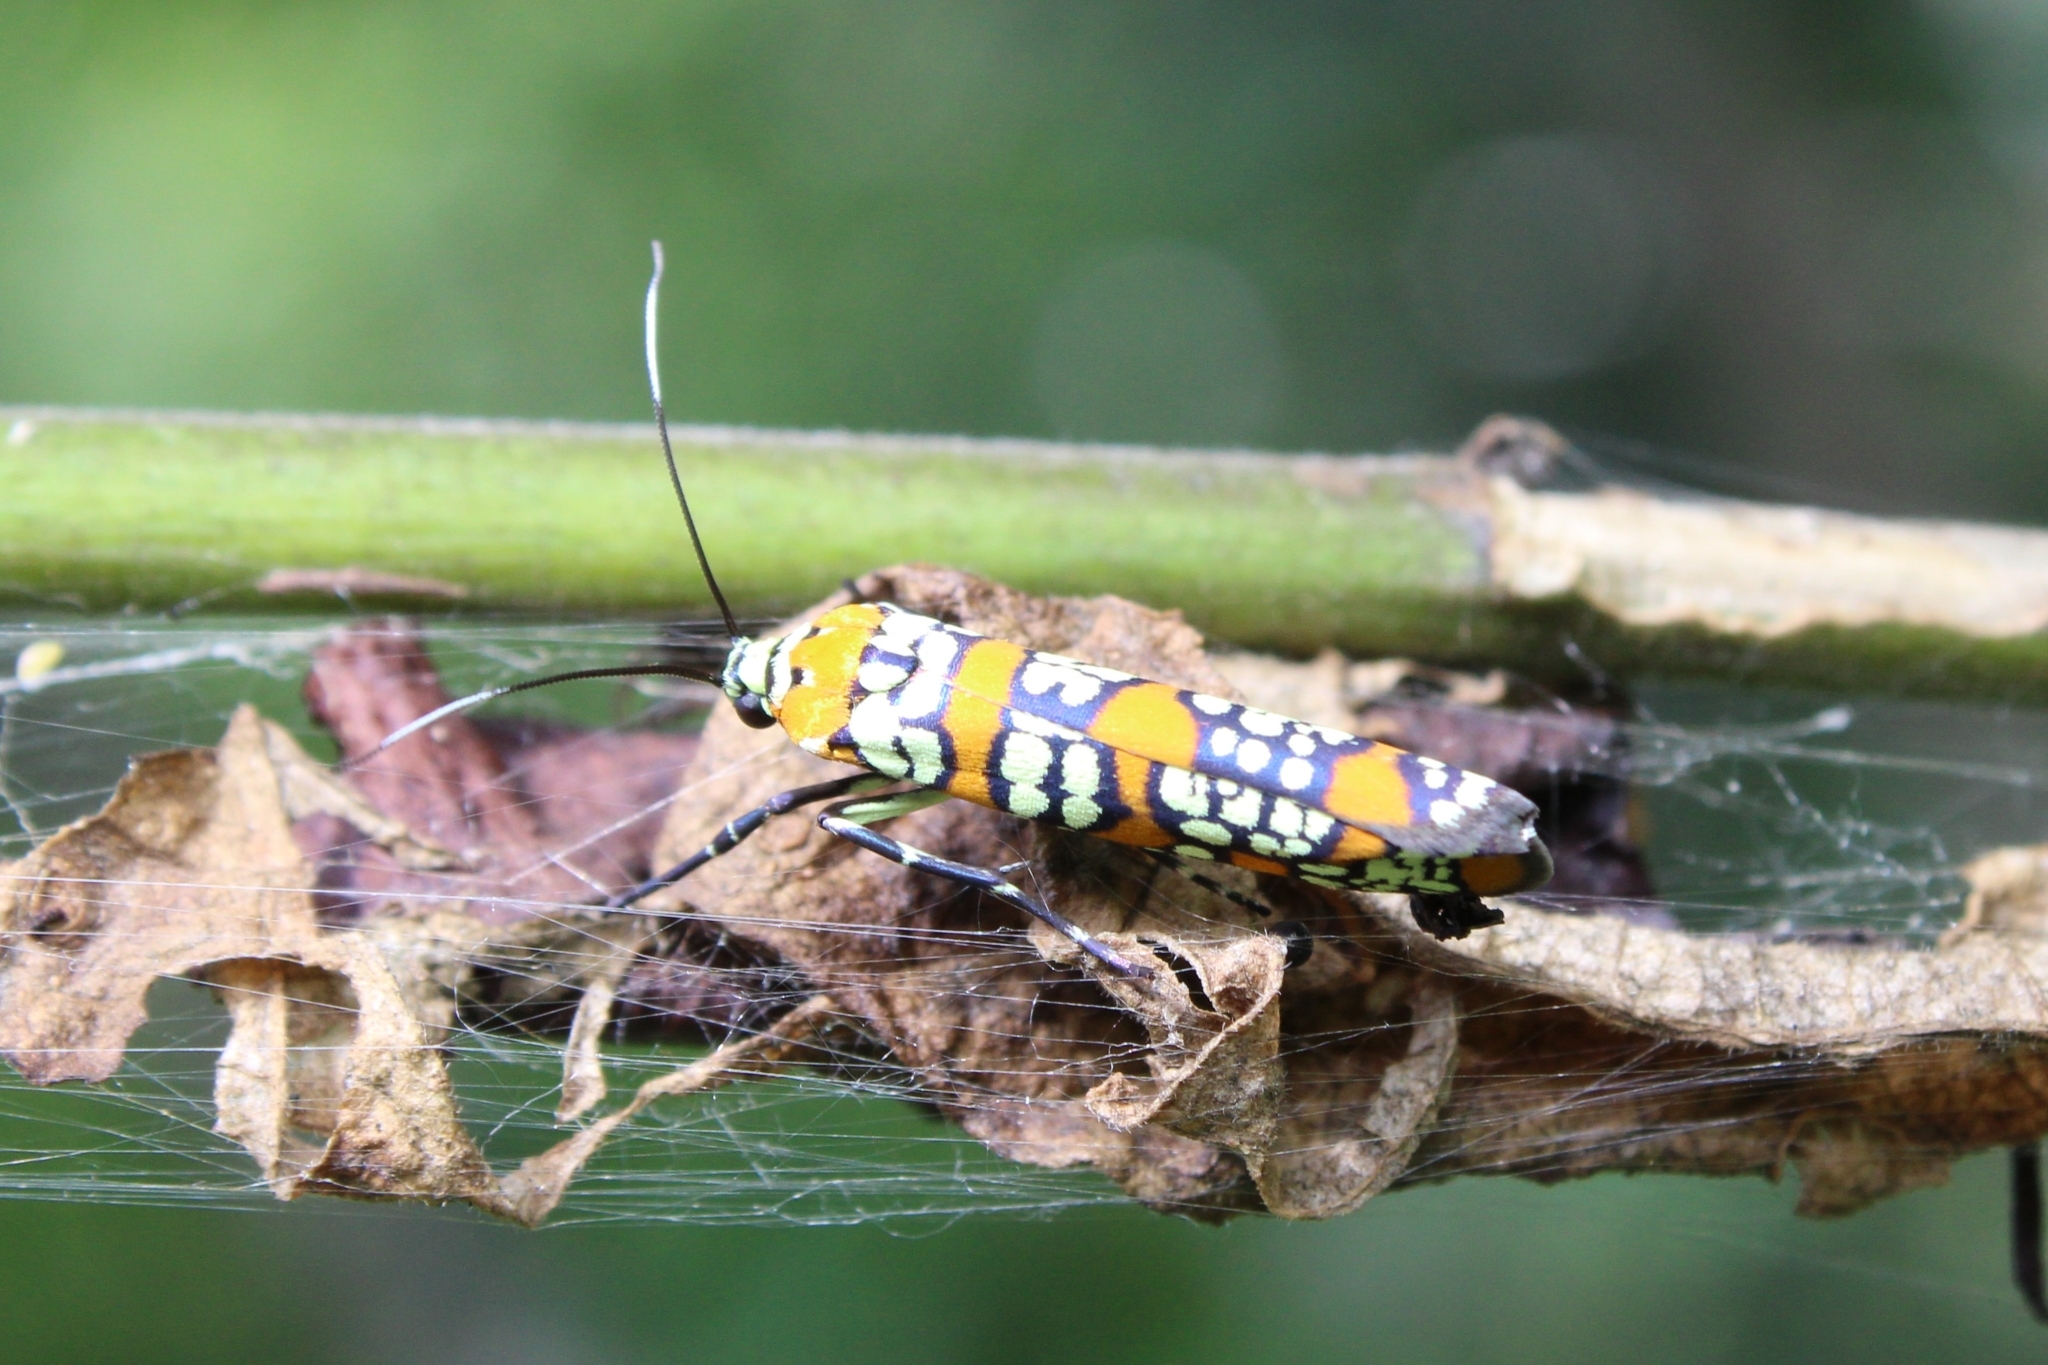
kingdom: Animalia
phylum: Arthropoda
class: Insecta
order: Lepidoptera
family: Attevidae
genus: Atteva
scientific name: Atteva punctella
